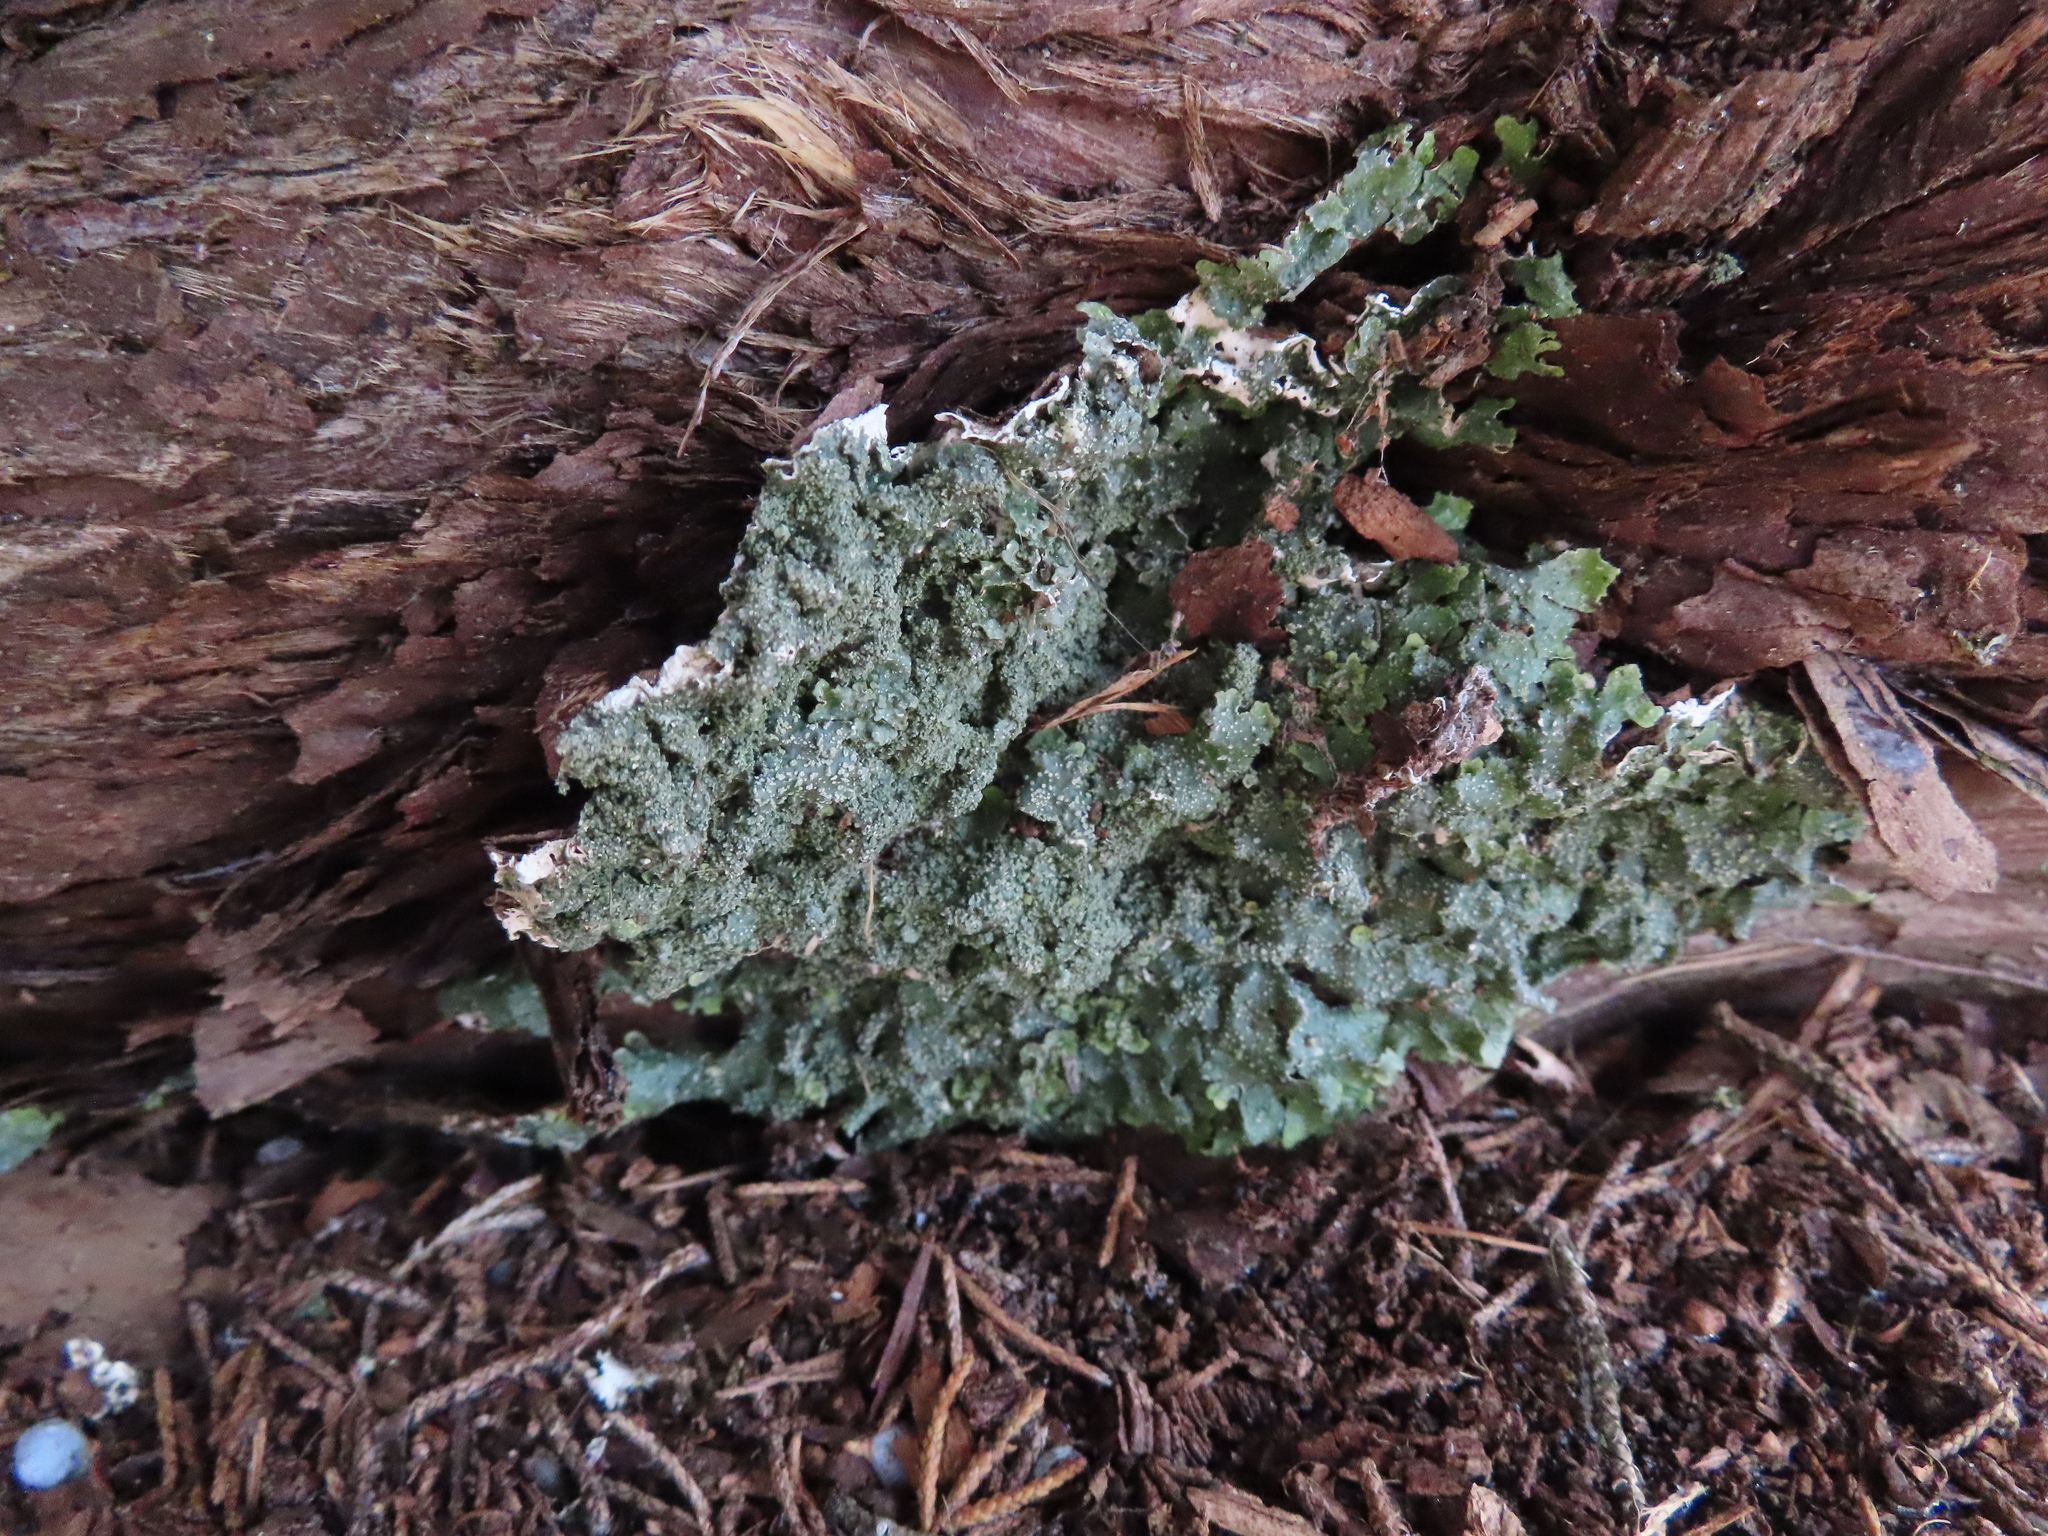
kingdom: Fungi
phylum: Ascomycota
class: Lecanoromycetes
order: Lecanorales
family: Parmeliaceae
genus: Punctelia
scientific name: Punctelia missouriensis
